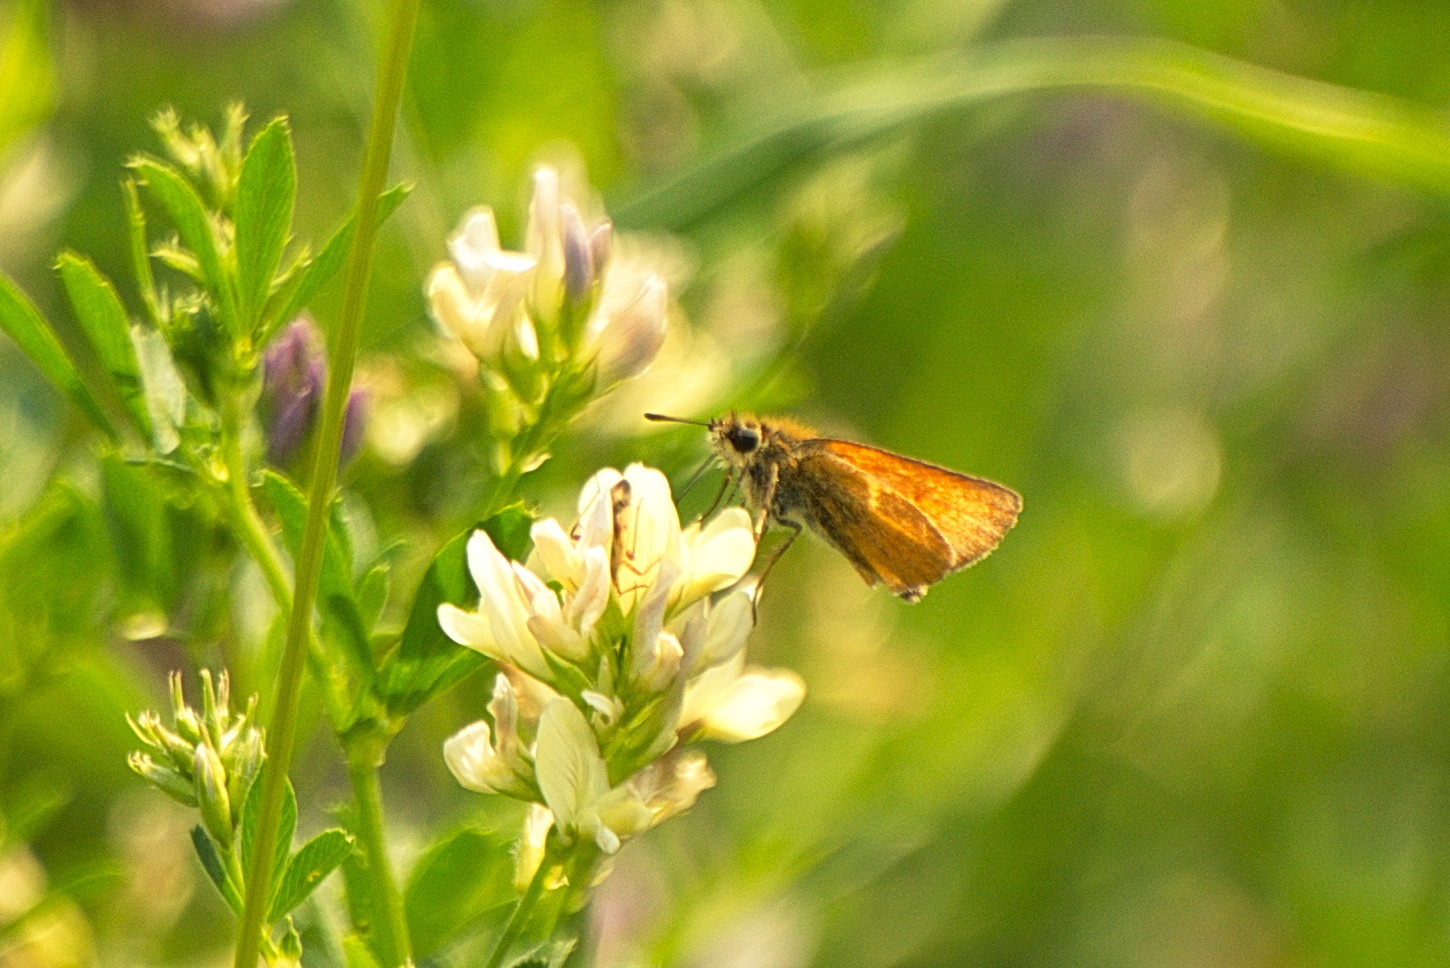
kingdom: Animalia
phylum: Arthropoda
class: Insecta
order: Lepidoptera
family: Hesperiidae
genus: Thymelicus
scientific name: Thymelicus lineola
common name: Essex skipper
